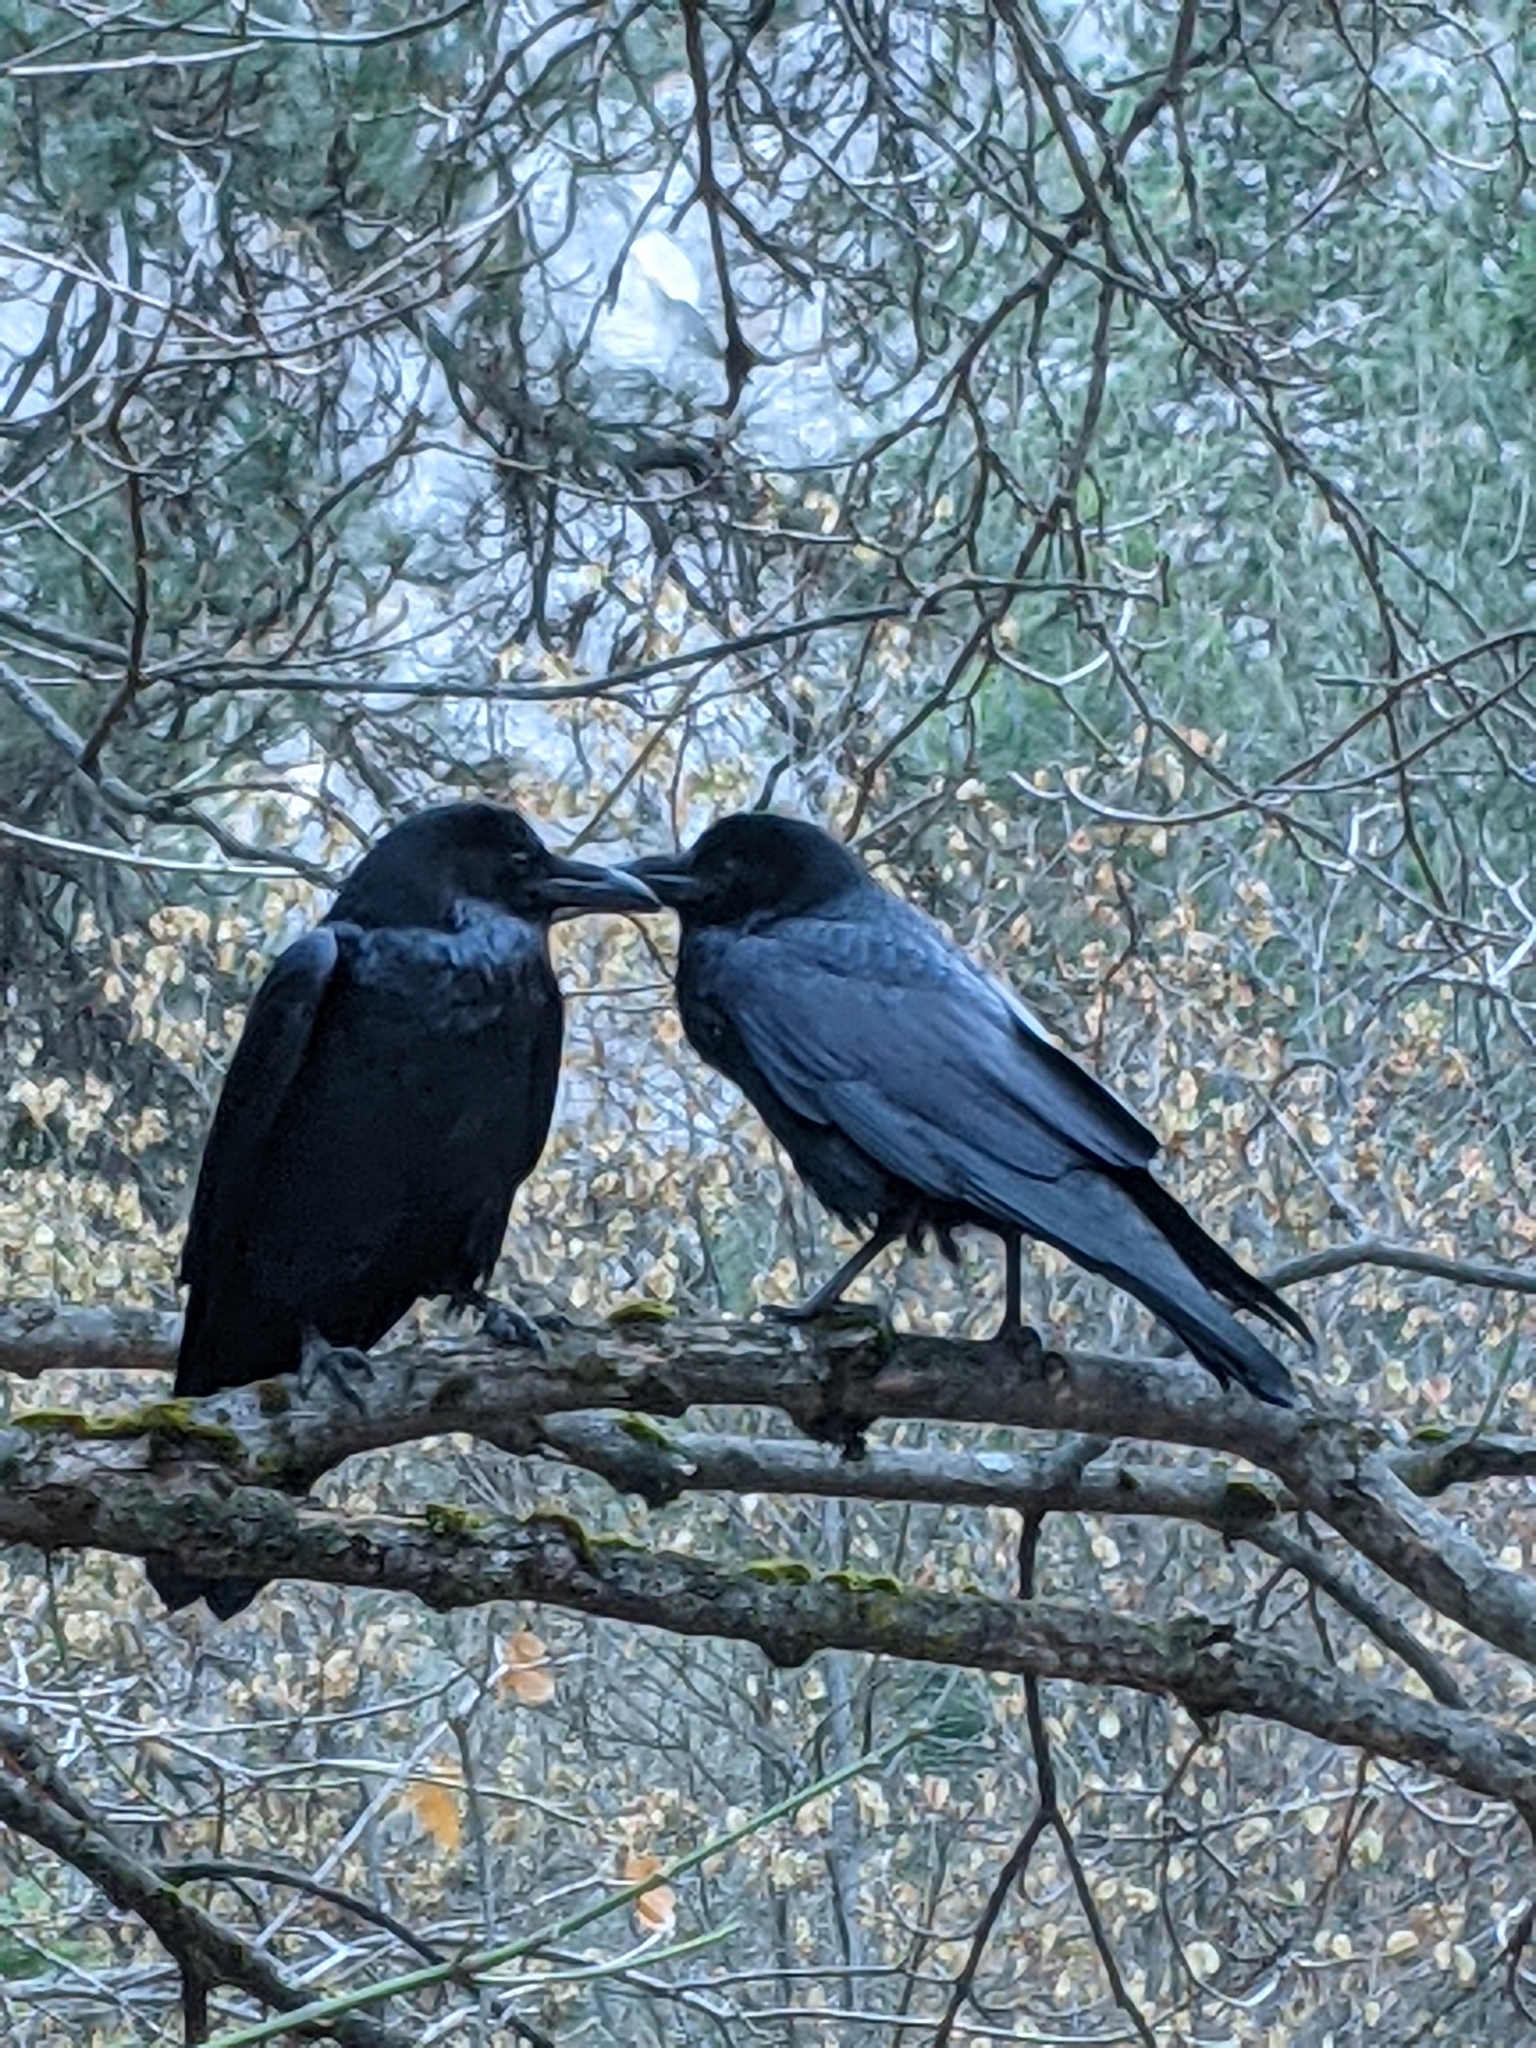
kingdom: Animalia
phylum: Chordata
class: Aves
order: Passeriformes
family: Corvidae
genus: Corvus
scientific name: Corvus corax
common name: Common raven
